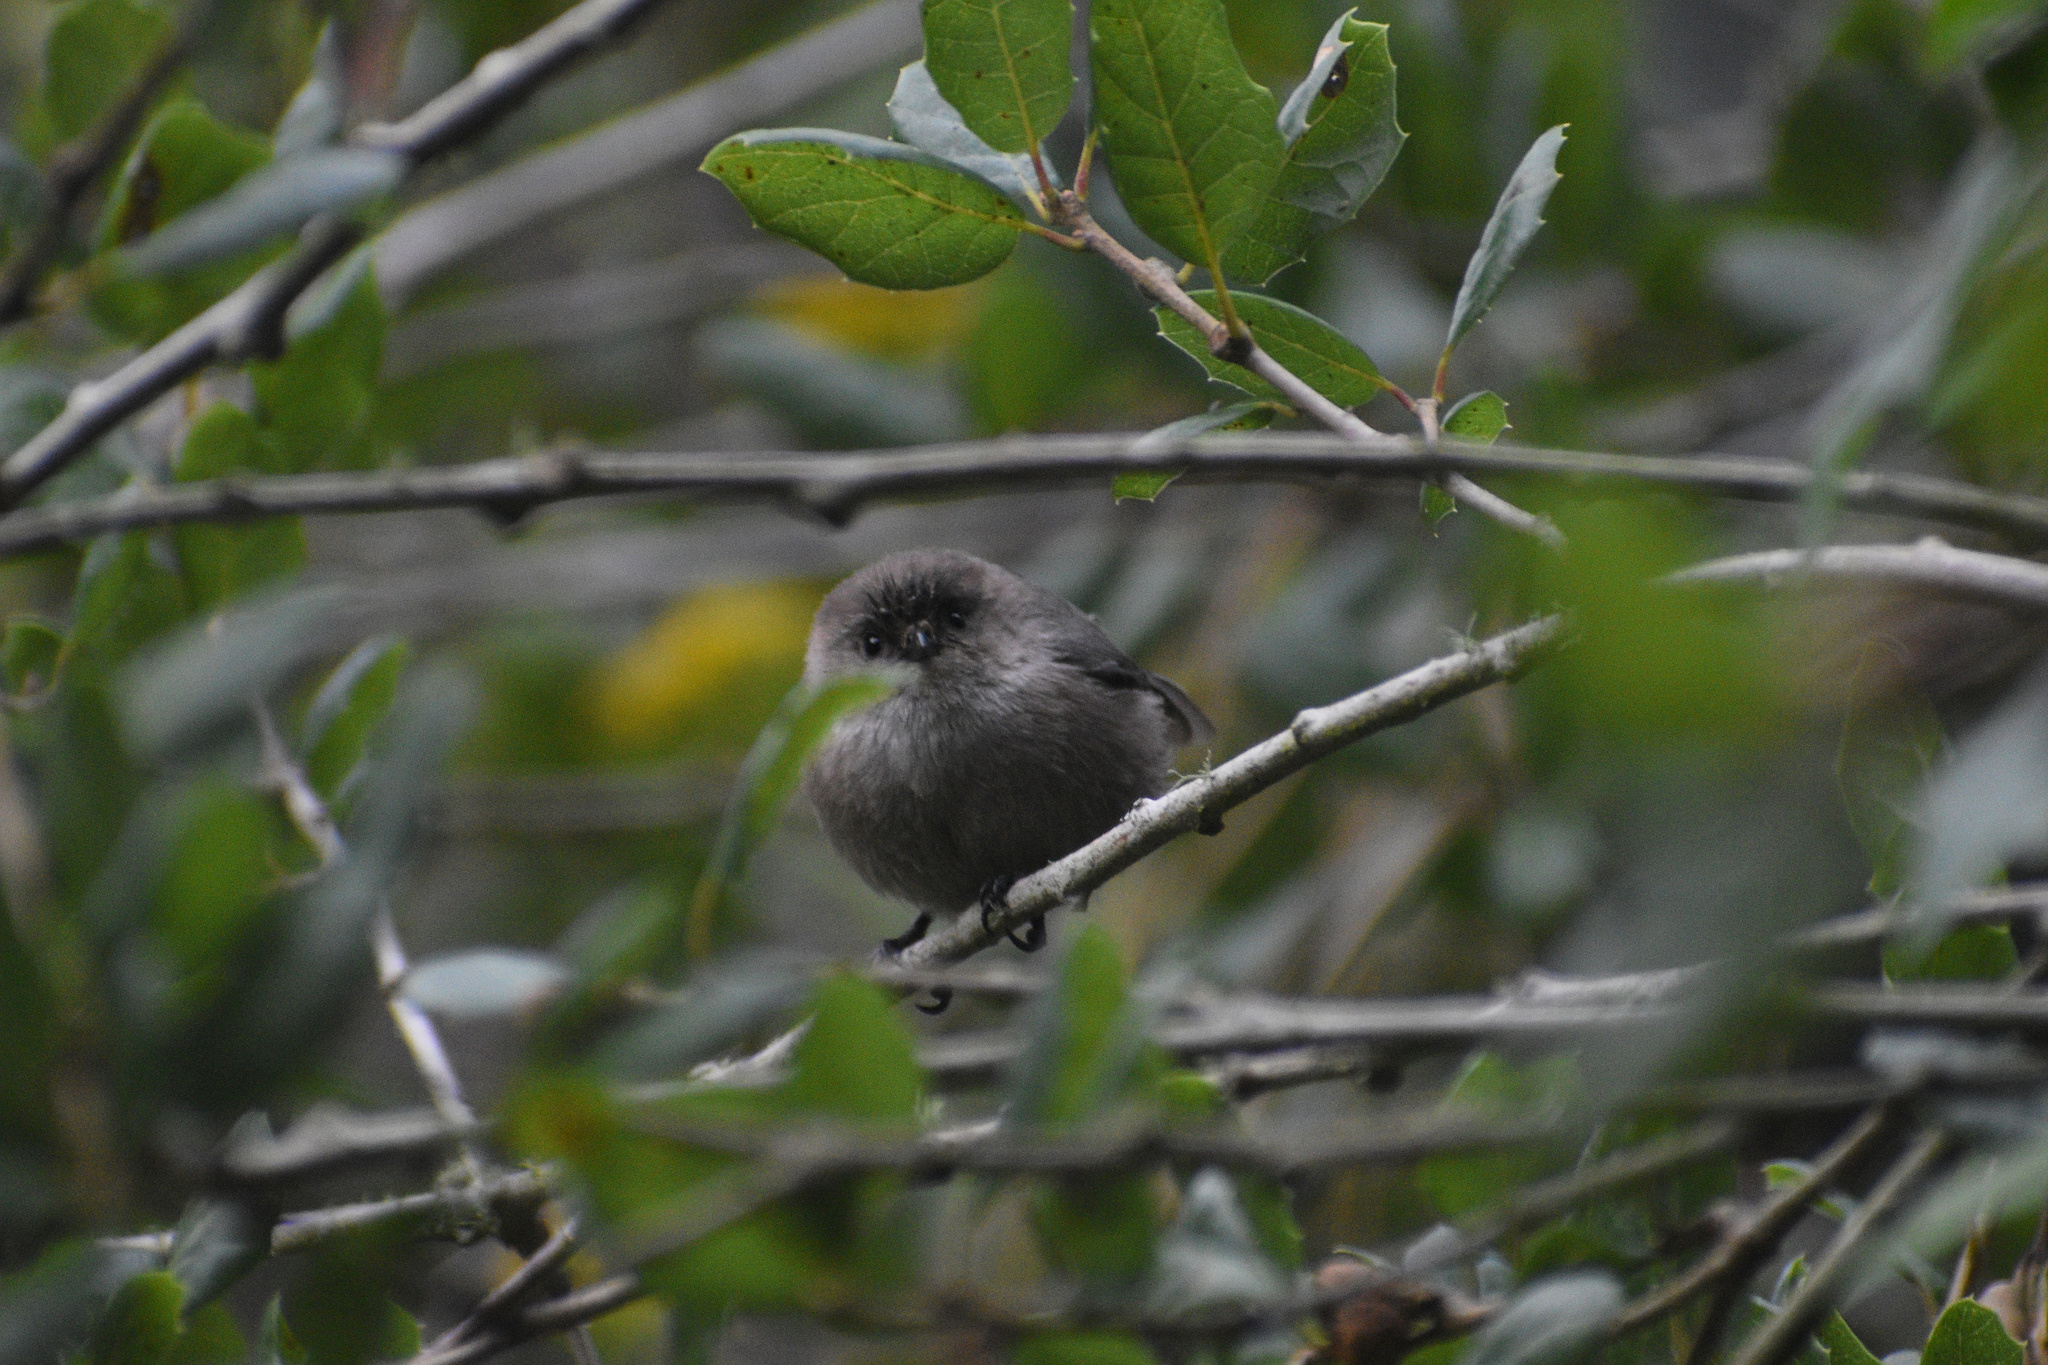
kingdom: Animalia
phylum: Chordata
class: Aves
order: Passeriformes
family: Aegithalidae
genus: Psaltriparus
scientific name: Psaltriparus minimus
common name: American bushtit
